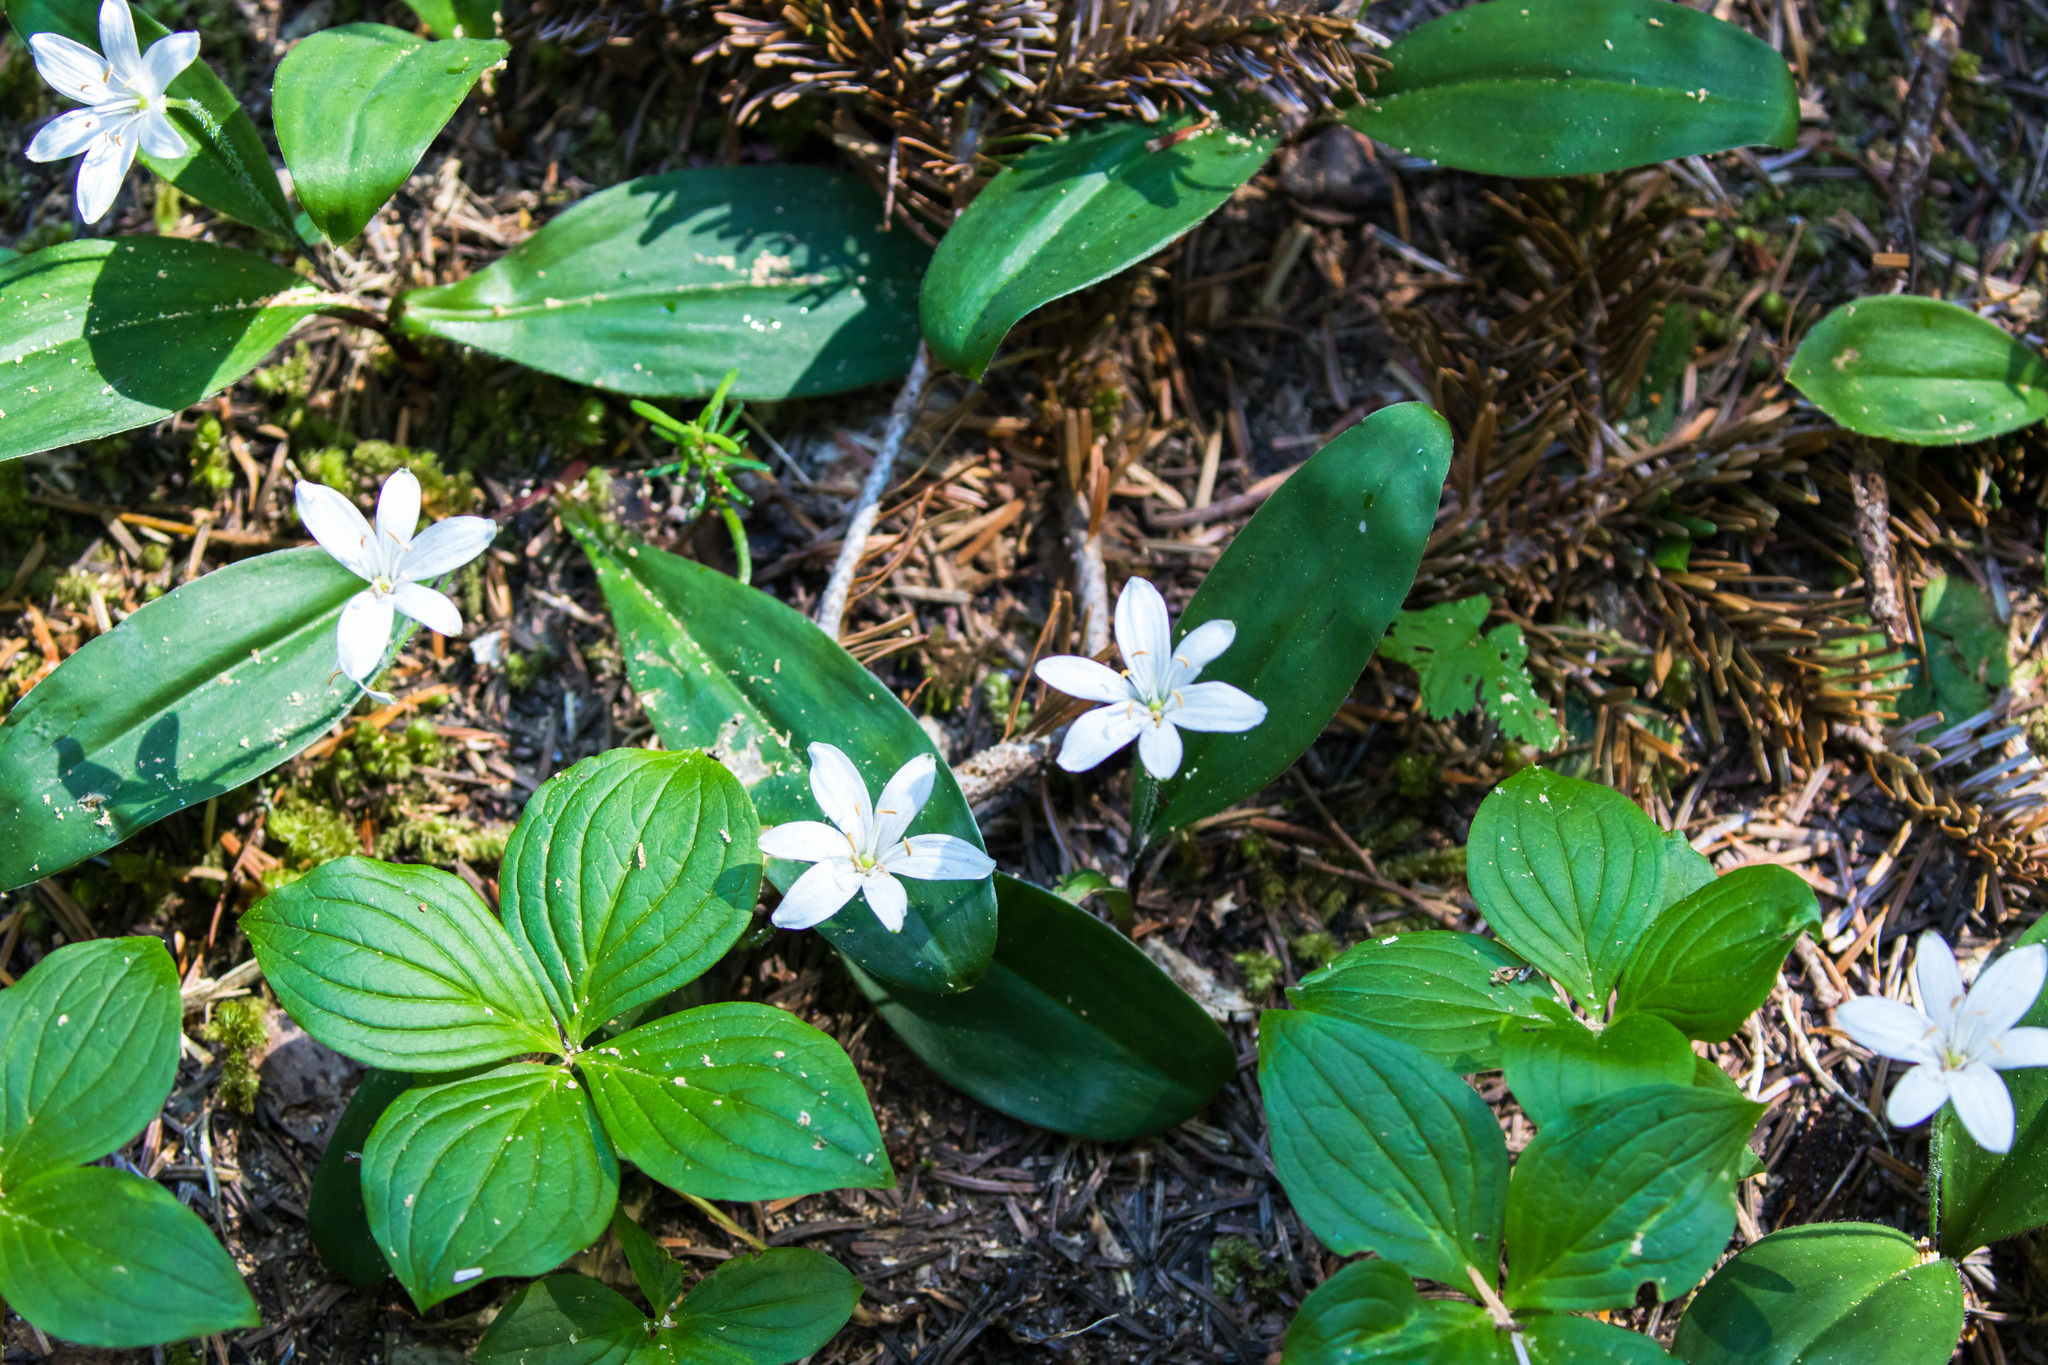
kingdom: Plantae
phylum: Tracheophyta
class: Liliopsida
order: Liliales
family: Liliaceae
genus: Clintonia
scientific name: Clintonia uniflora
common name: Queen's cup
